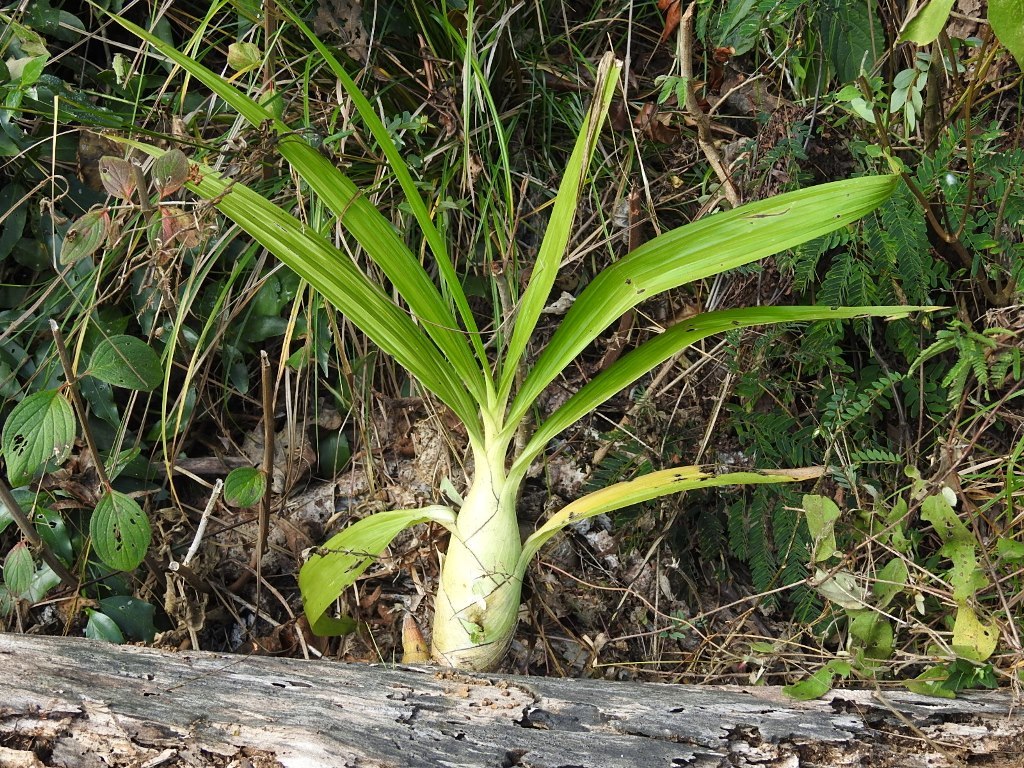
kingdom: Plantae
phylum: Tracheophyta
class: Liliopsida
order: Asparagales
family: Orchidaceae
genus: Cyrtopodium
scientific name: Cyrtopodium macrobulbon
